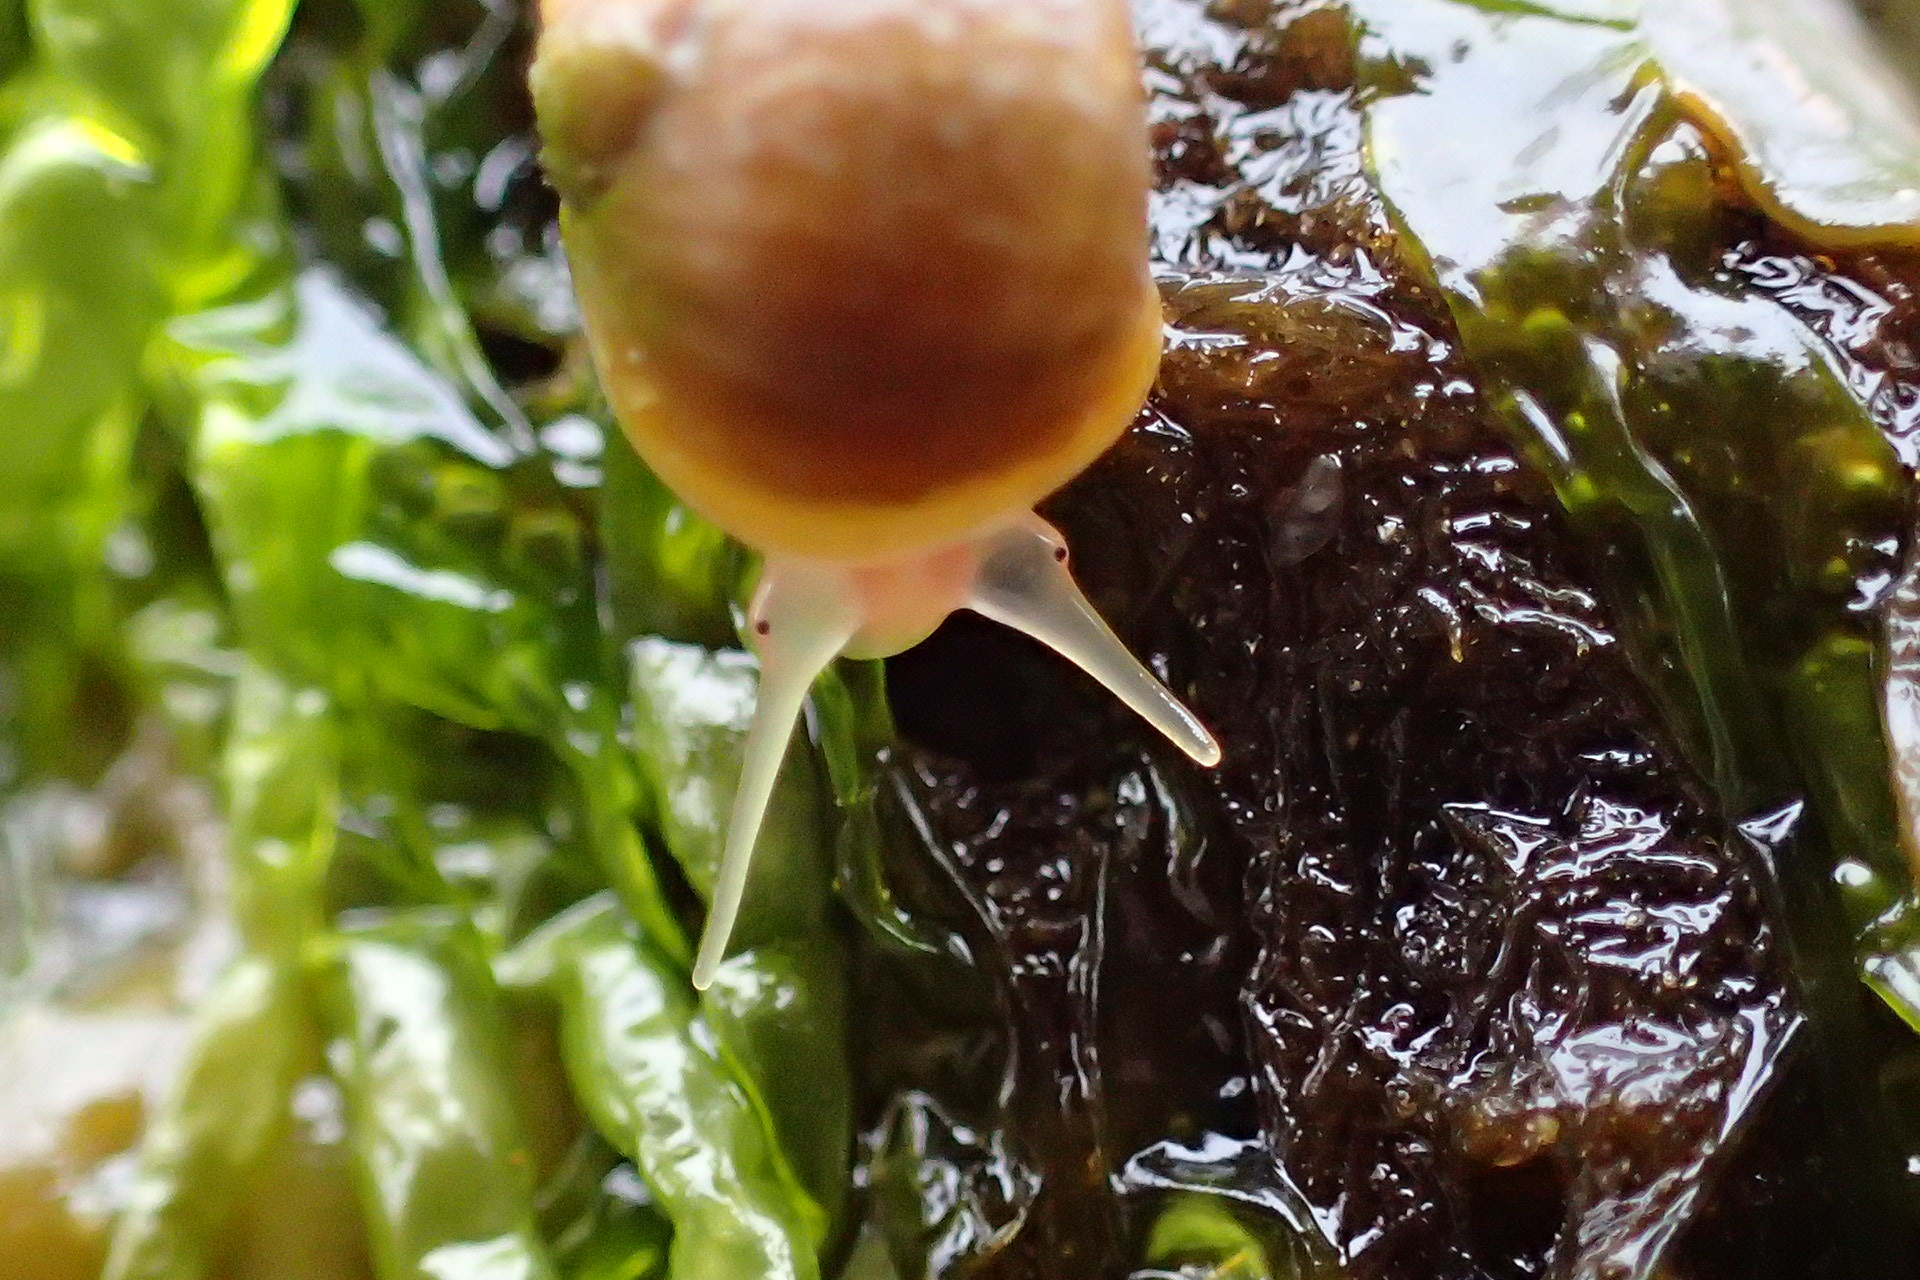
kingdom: Animalia
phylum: Mollusca
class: Gastropoda
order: Littorinimorpha
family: Littorinidae
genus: Littorina
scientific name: Littorina obtusata
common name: Flat periwinkle
